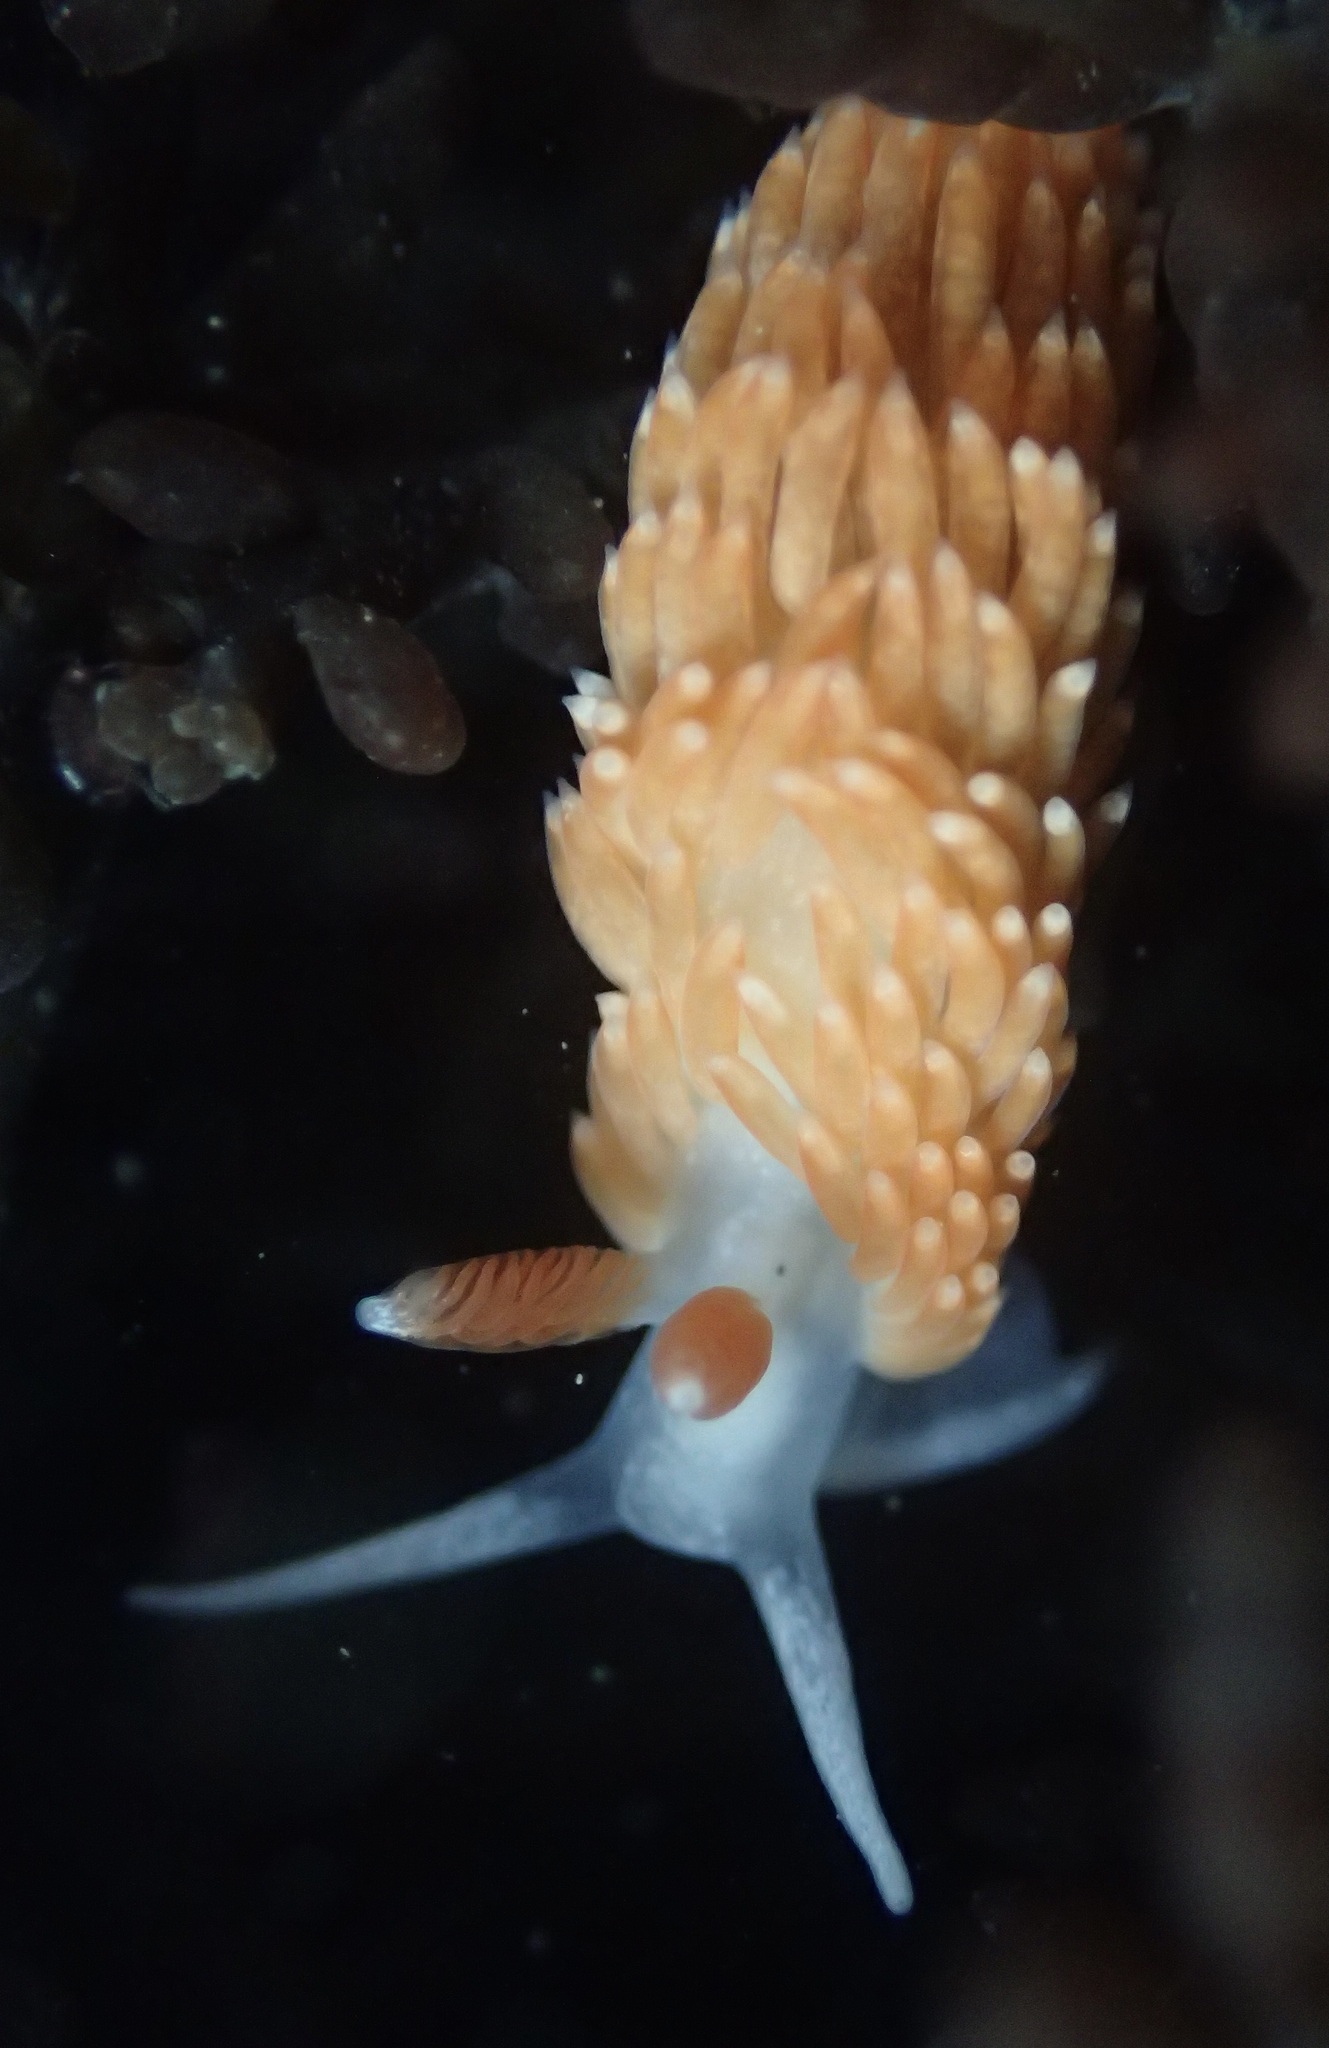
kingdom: Animalia
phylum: Mollusca
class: Gastropoda
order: Nudibranchia
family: Aeolidiidae
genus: Anteaeolidiella
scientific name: Anteaeolidiella oliviae
